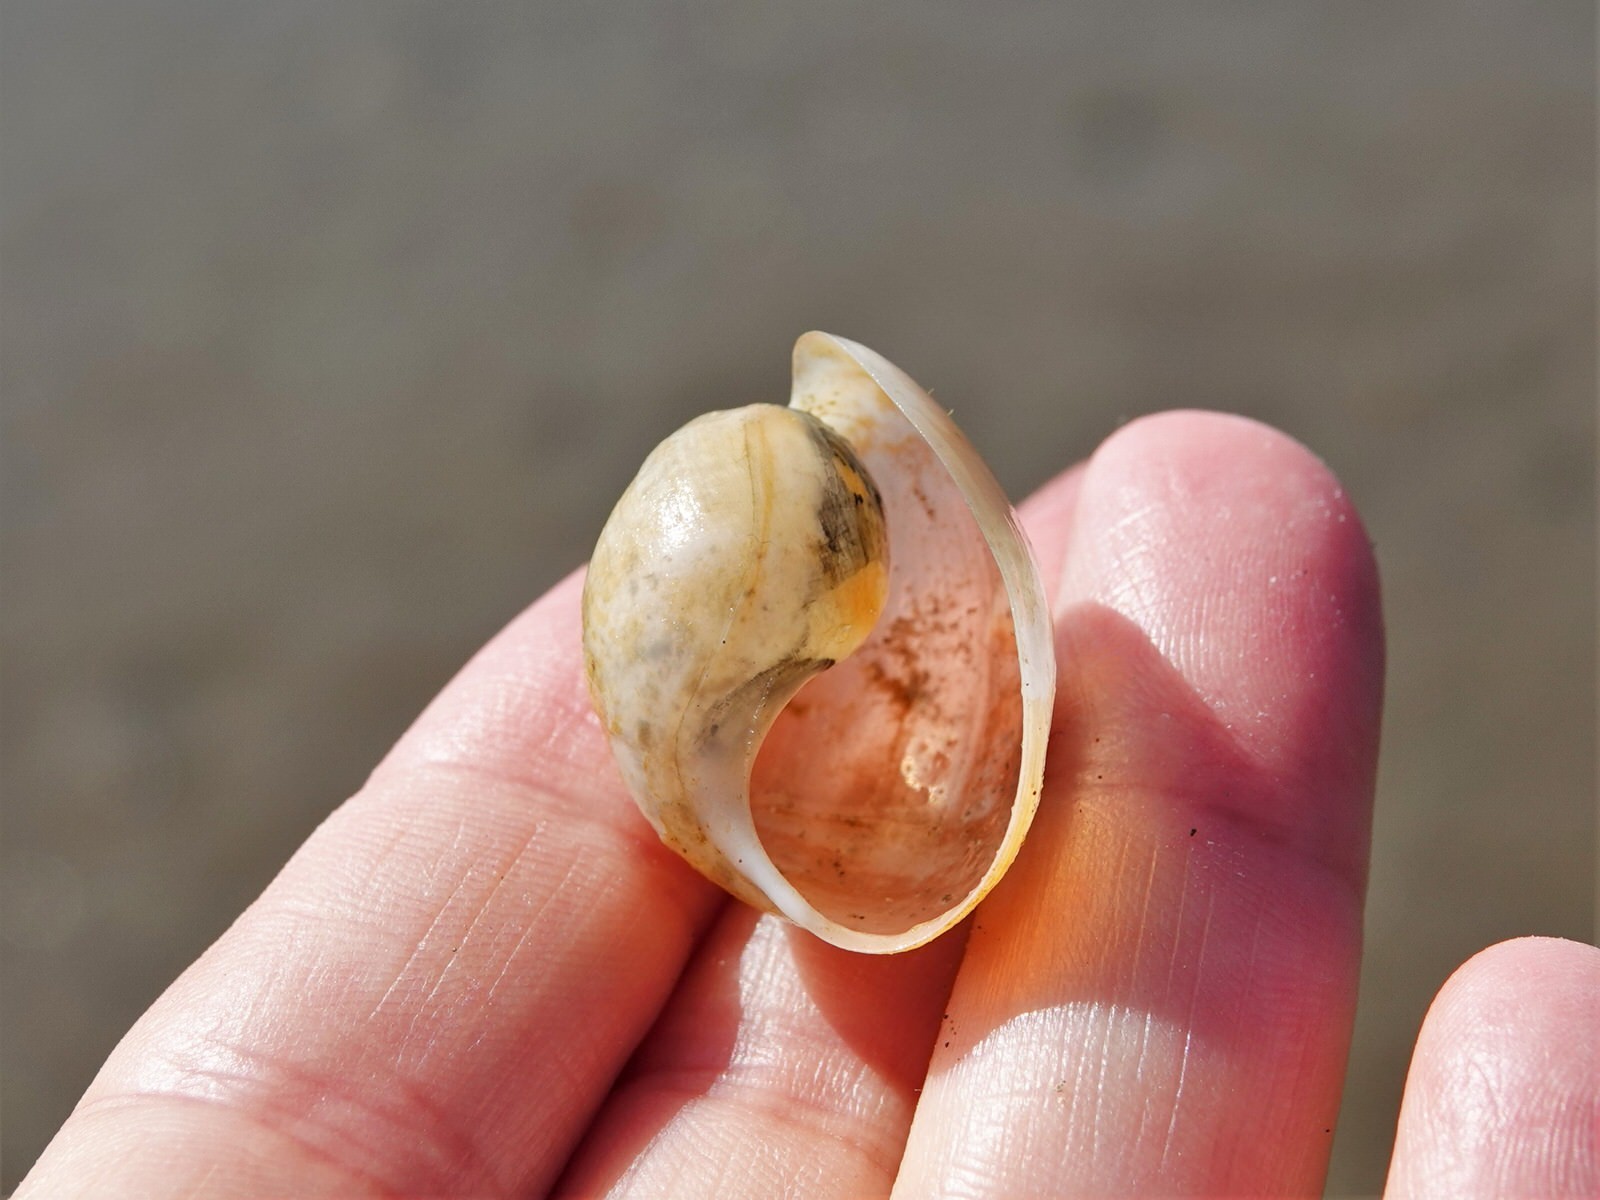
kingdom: Animalia
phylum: Mollusca
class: Gastropoda
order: Cephalaspidea
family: Haminoeidae
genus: Papawera
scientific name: Papawera zelandiae
